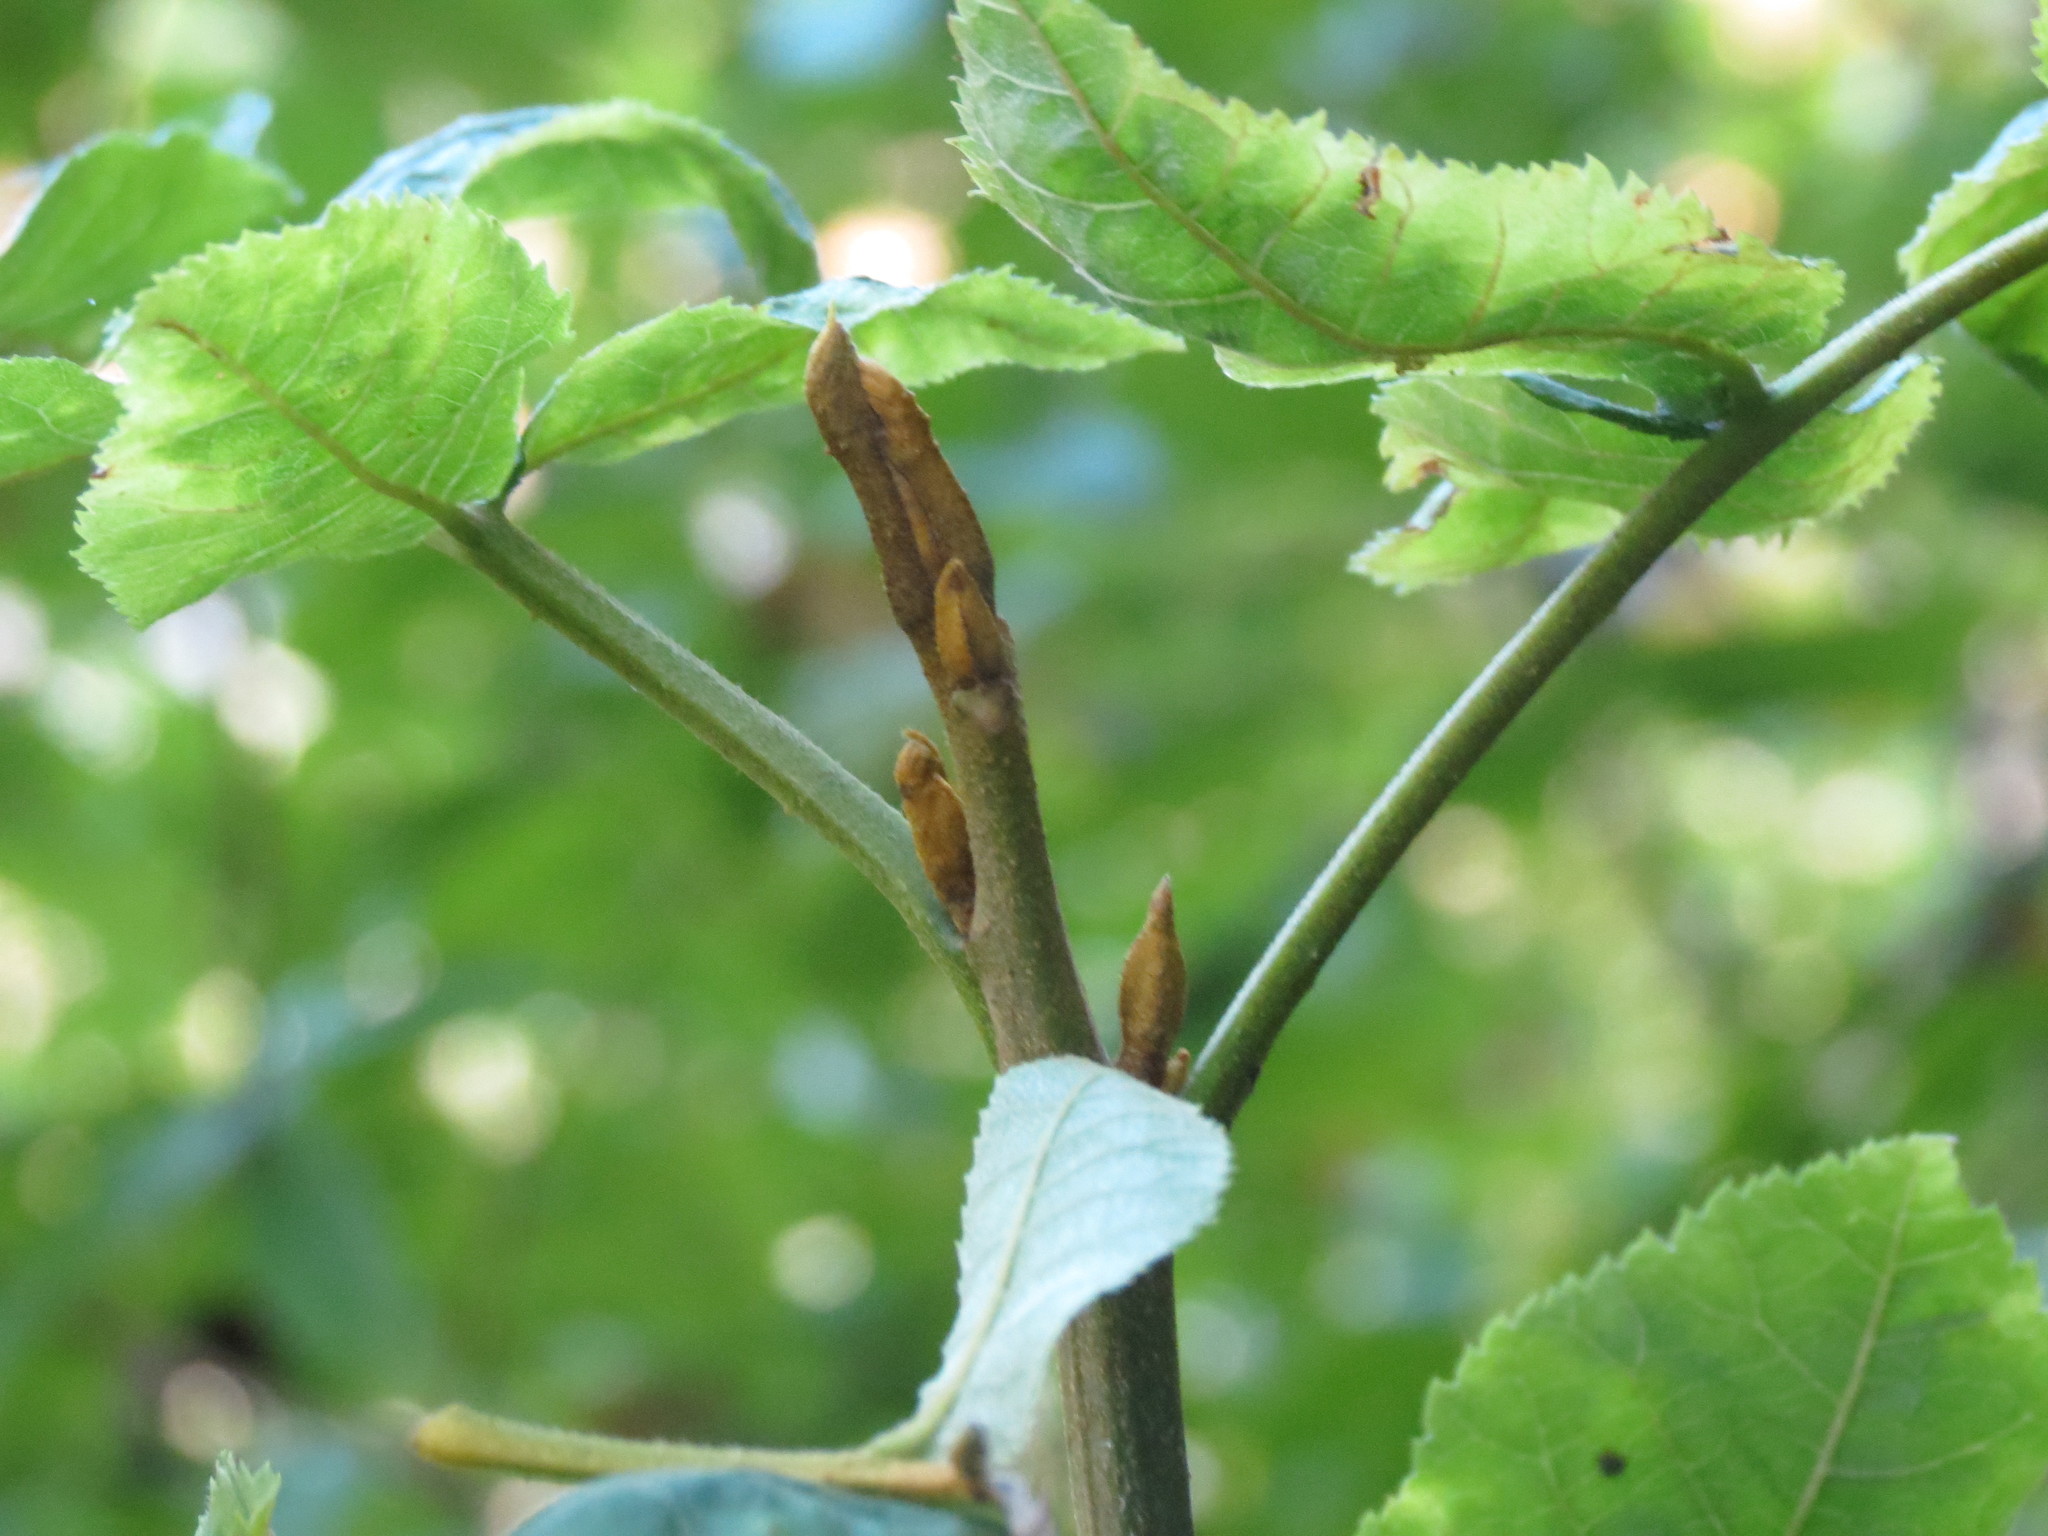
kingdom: Plantae
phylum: Tracheophyta
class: Magnoliopsida
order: Fagales
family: Juglandaceae
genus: Carya
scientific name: Carya cordiformis
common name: Bitternut hickory
